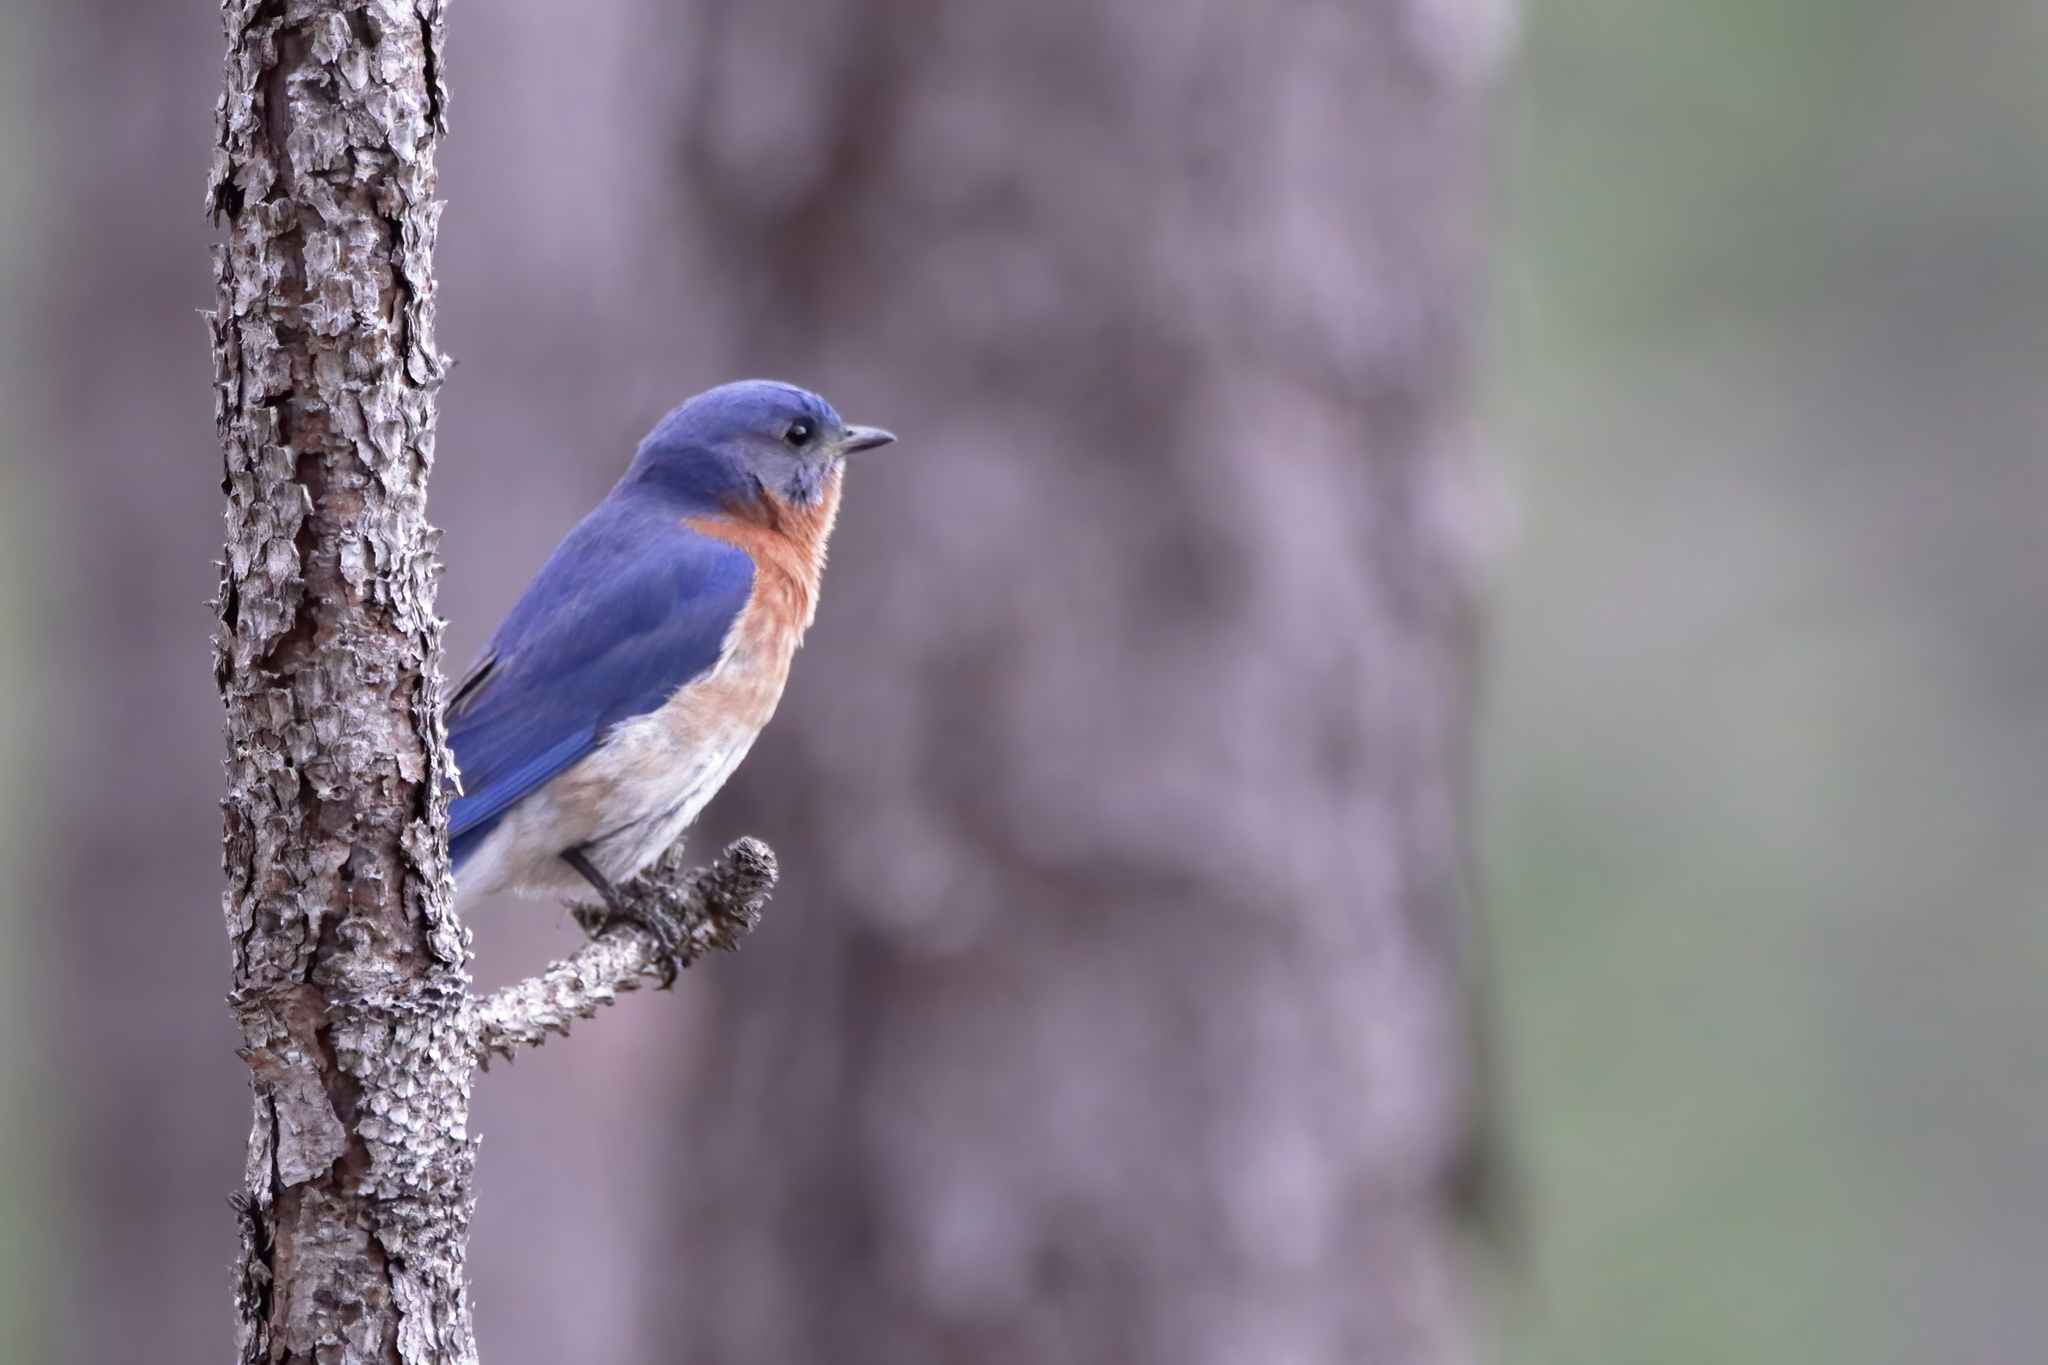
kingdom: Animalia
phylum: Chordata
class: Aves
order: Passeriformes
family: Turdidae
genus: Sialia
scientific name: Sialia sialis
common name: Eastern bluebird
